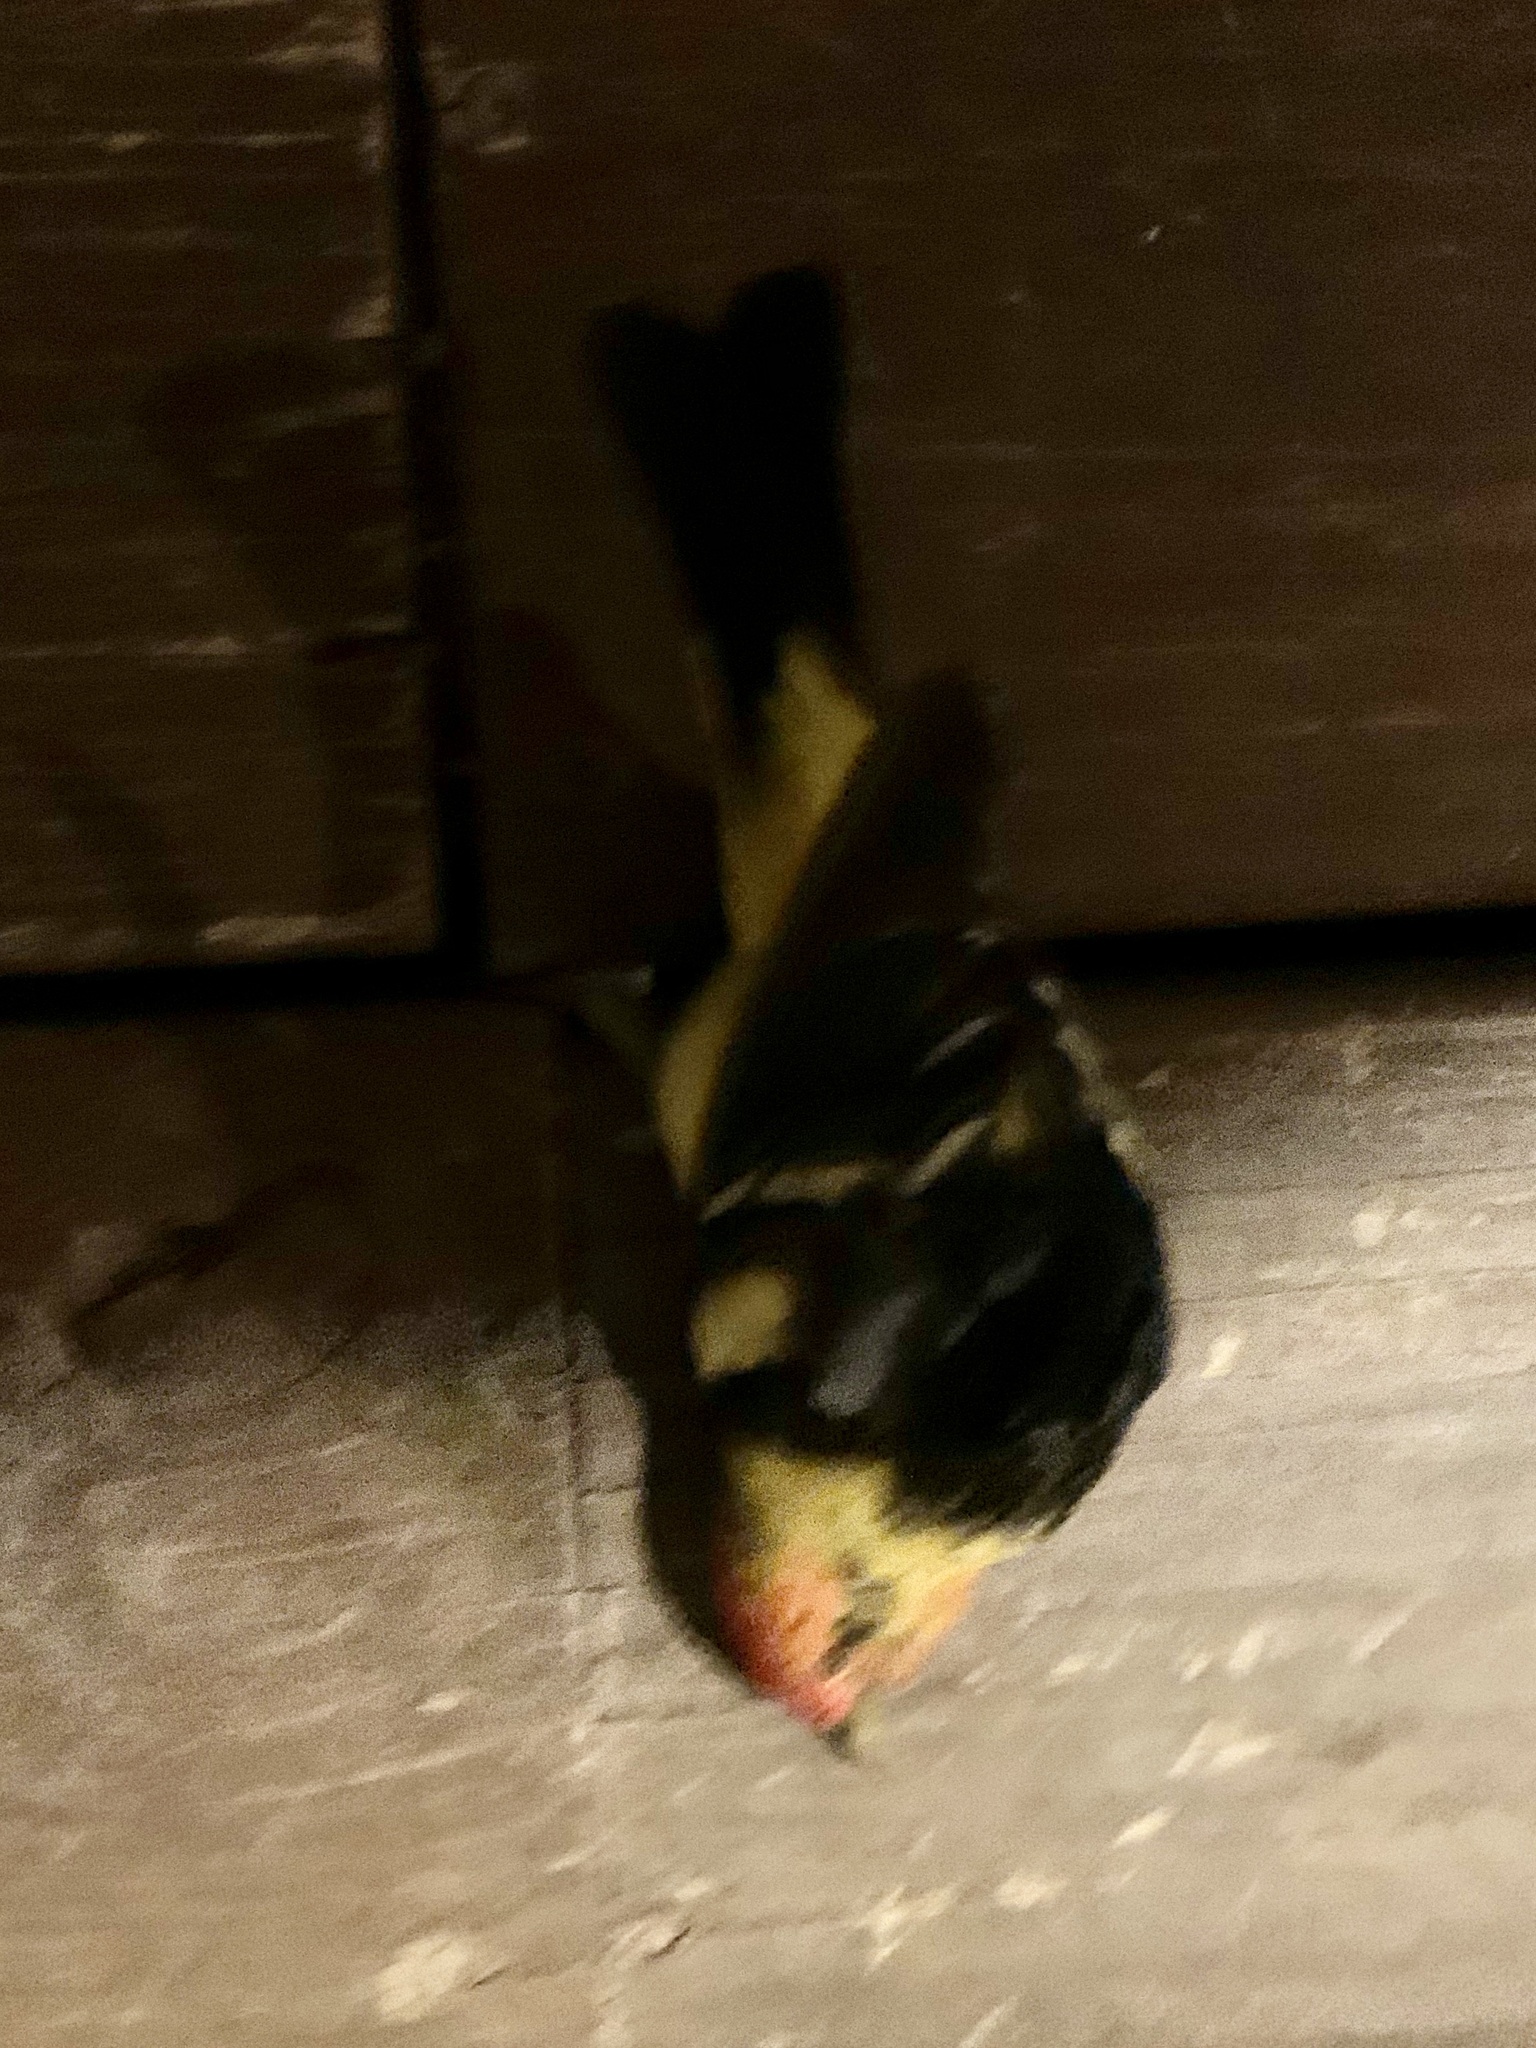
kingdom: Animalia
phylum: Chordata
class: Aves
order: Passeriformes
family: Cardinalidae
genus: Piranga
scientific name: Piranga ludoviciana
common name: Western tanager
